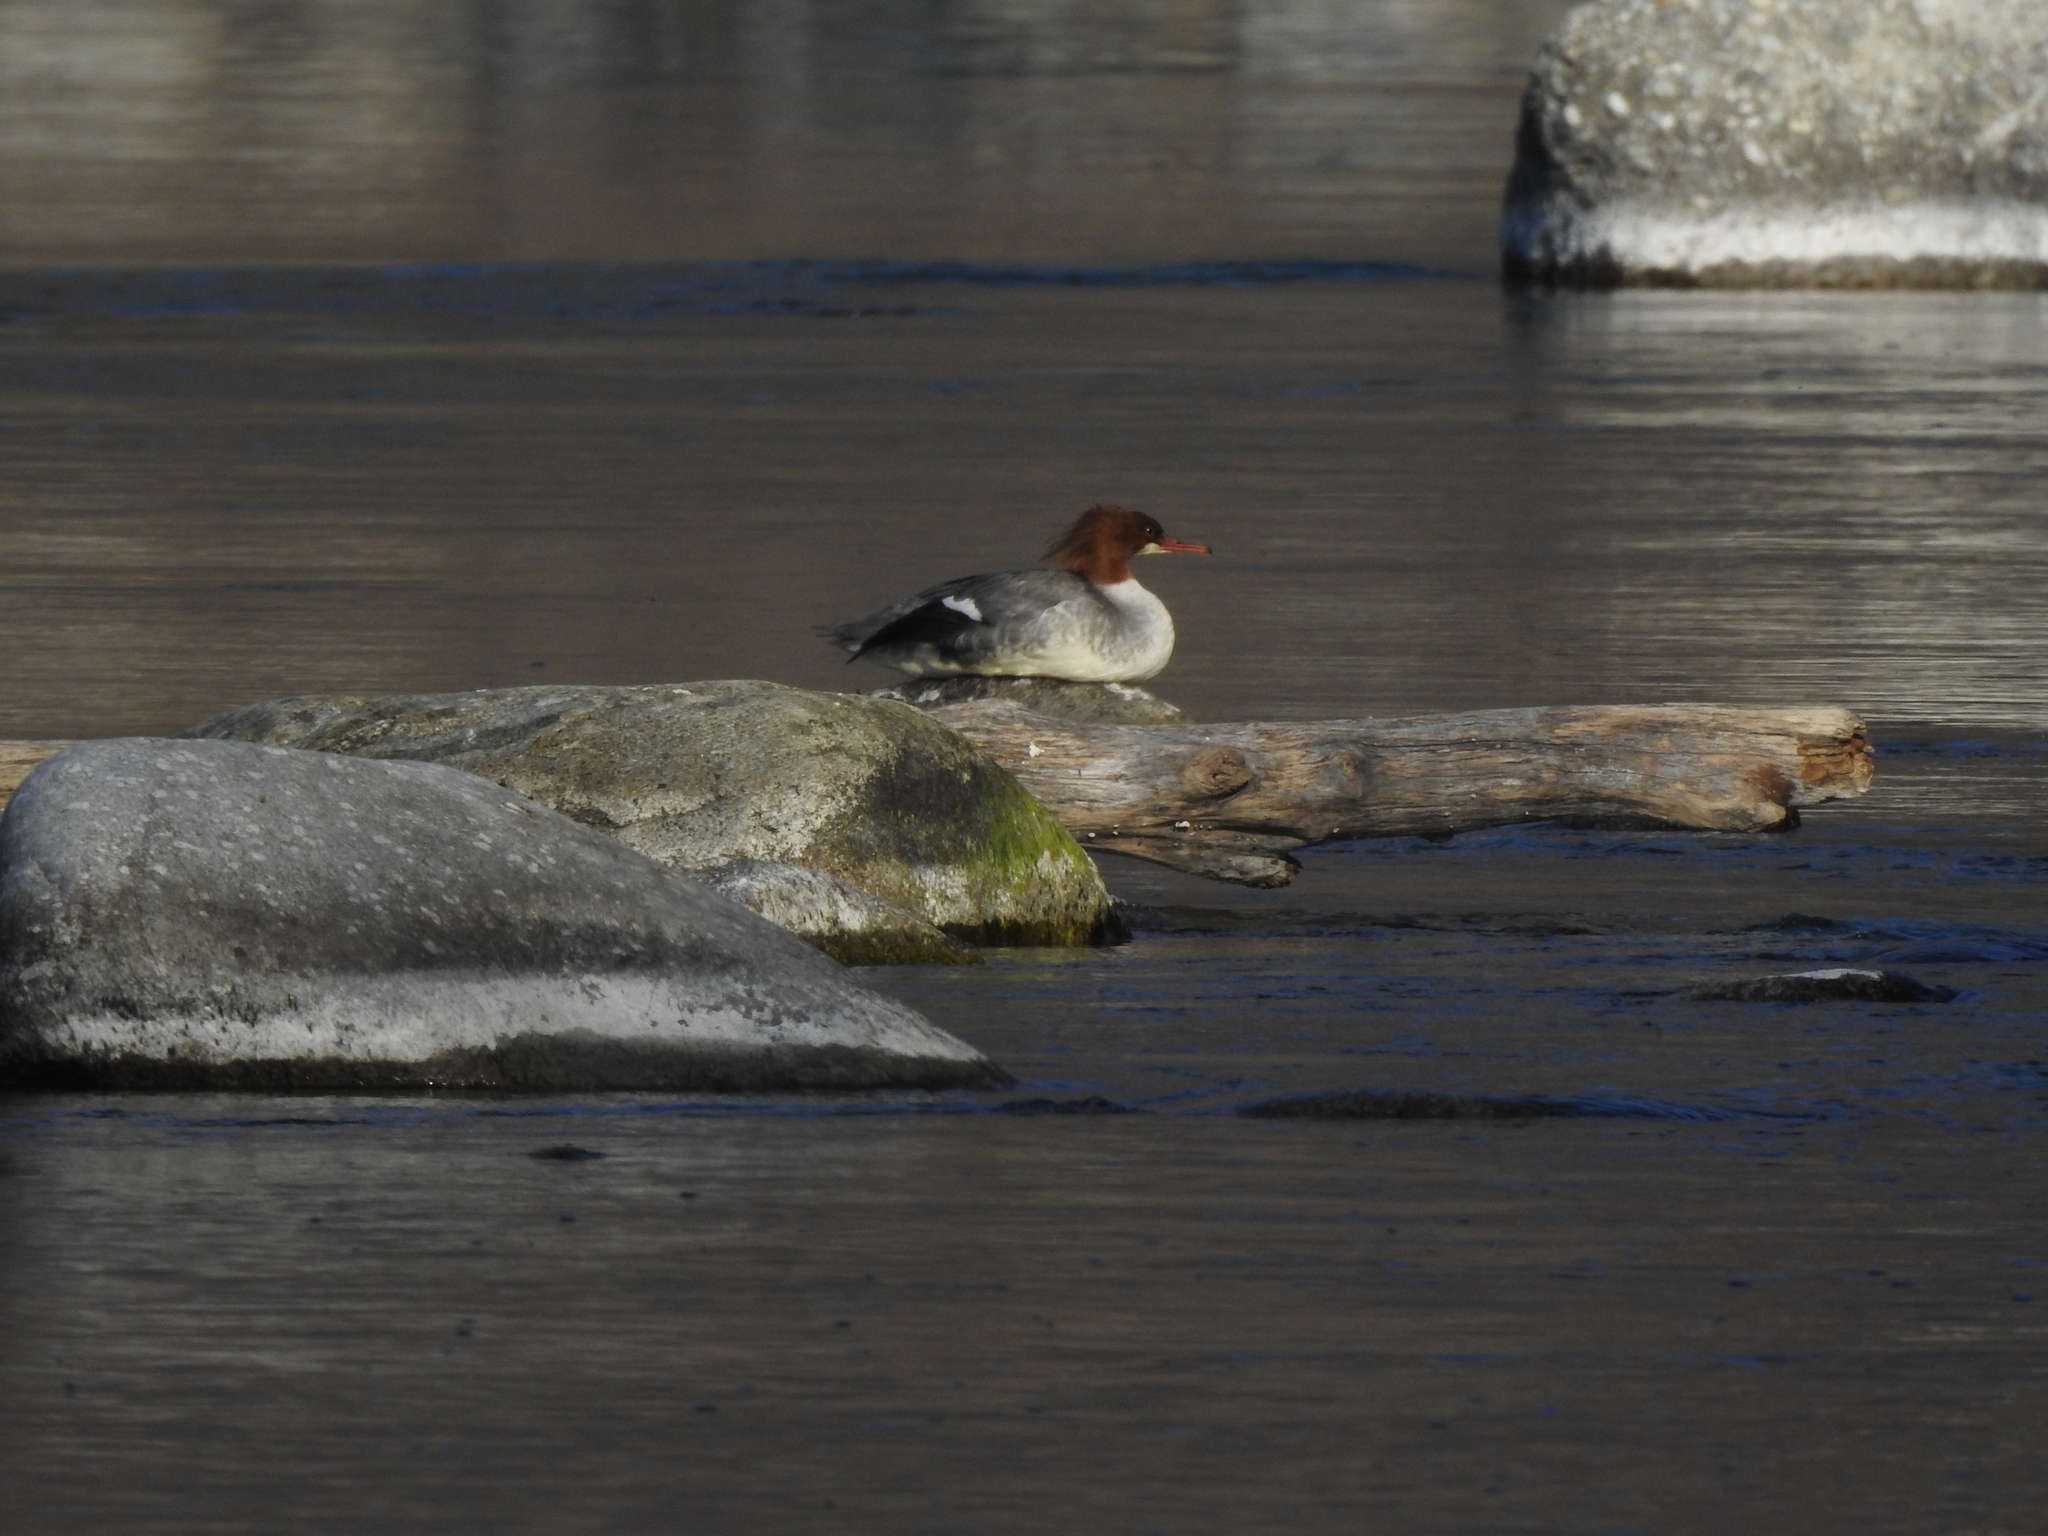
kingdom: Animalia
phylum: Chordata
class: Aves
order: Anseriformes
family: Anatidae
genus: Mergus
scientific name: Mergus merganser
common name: Common merganser
